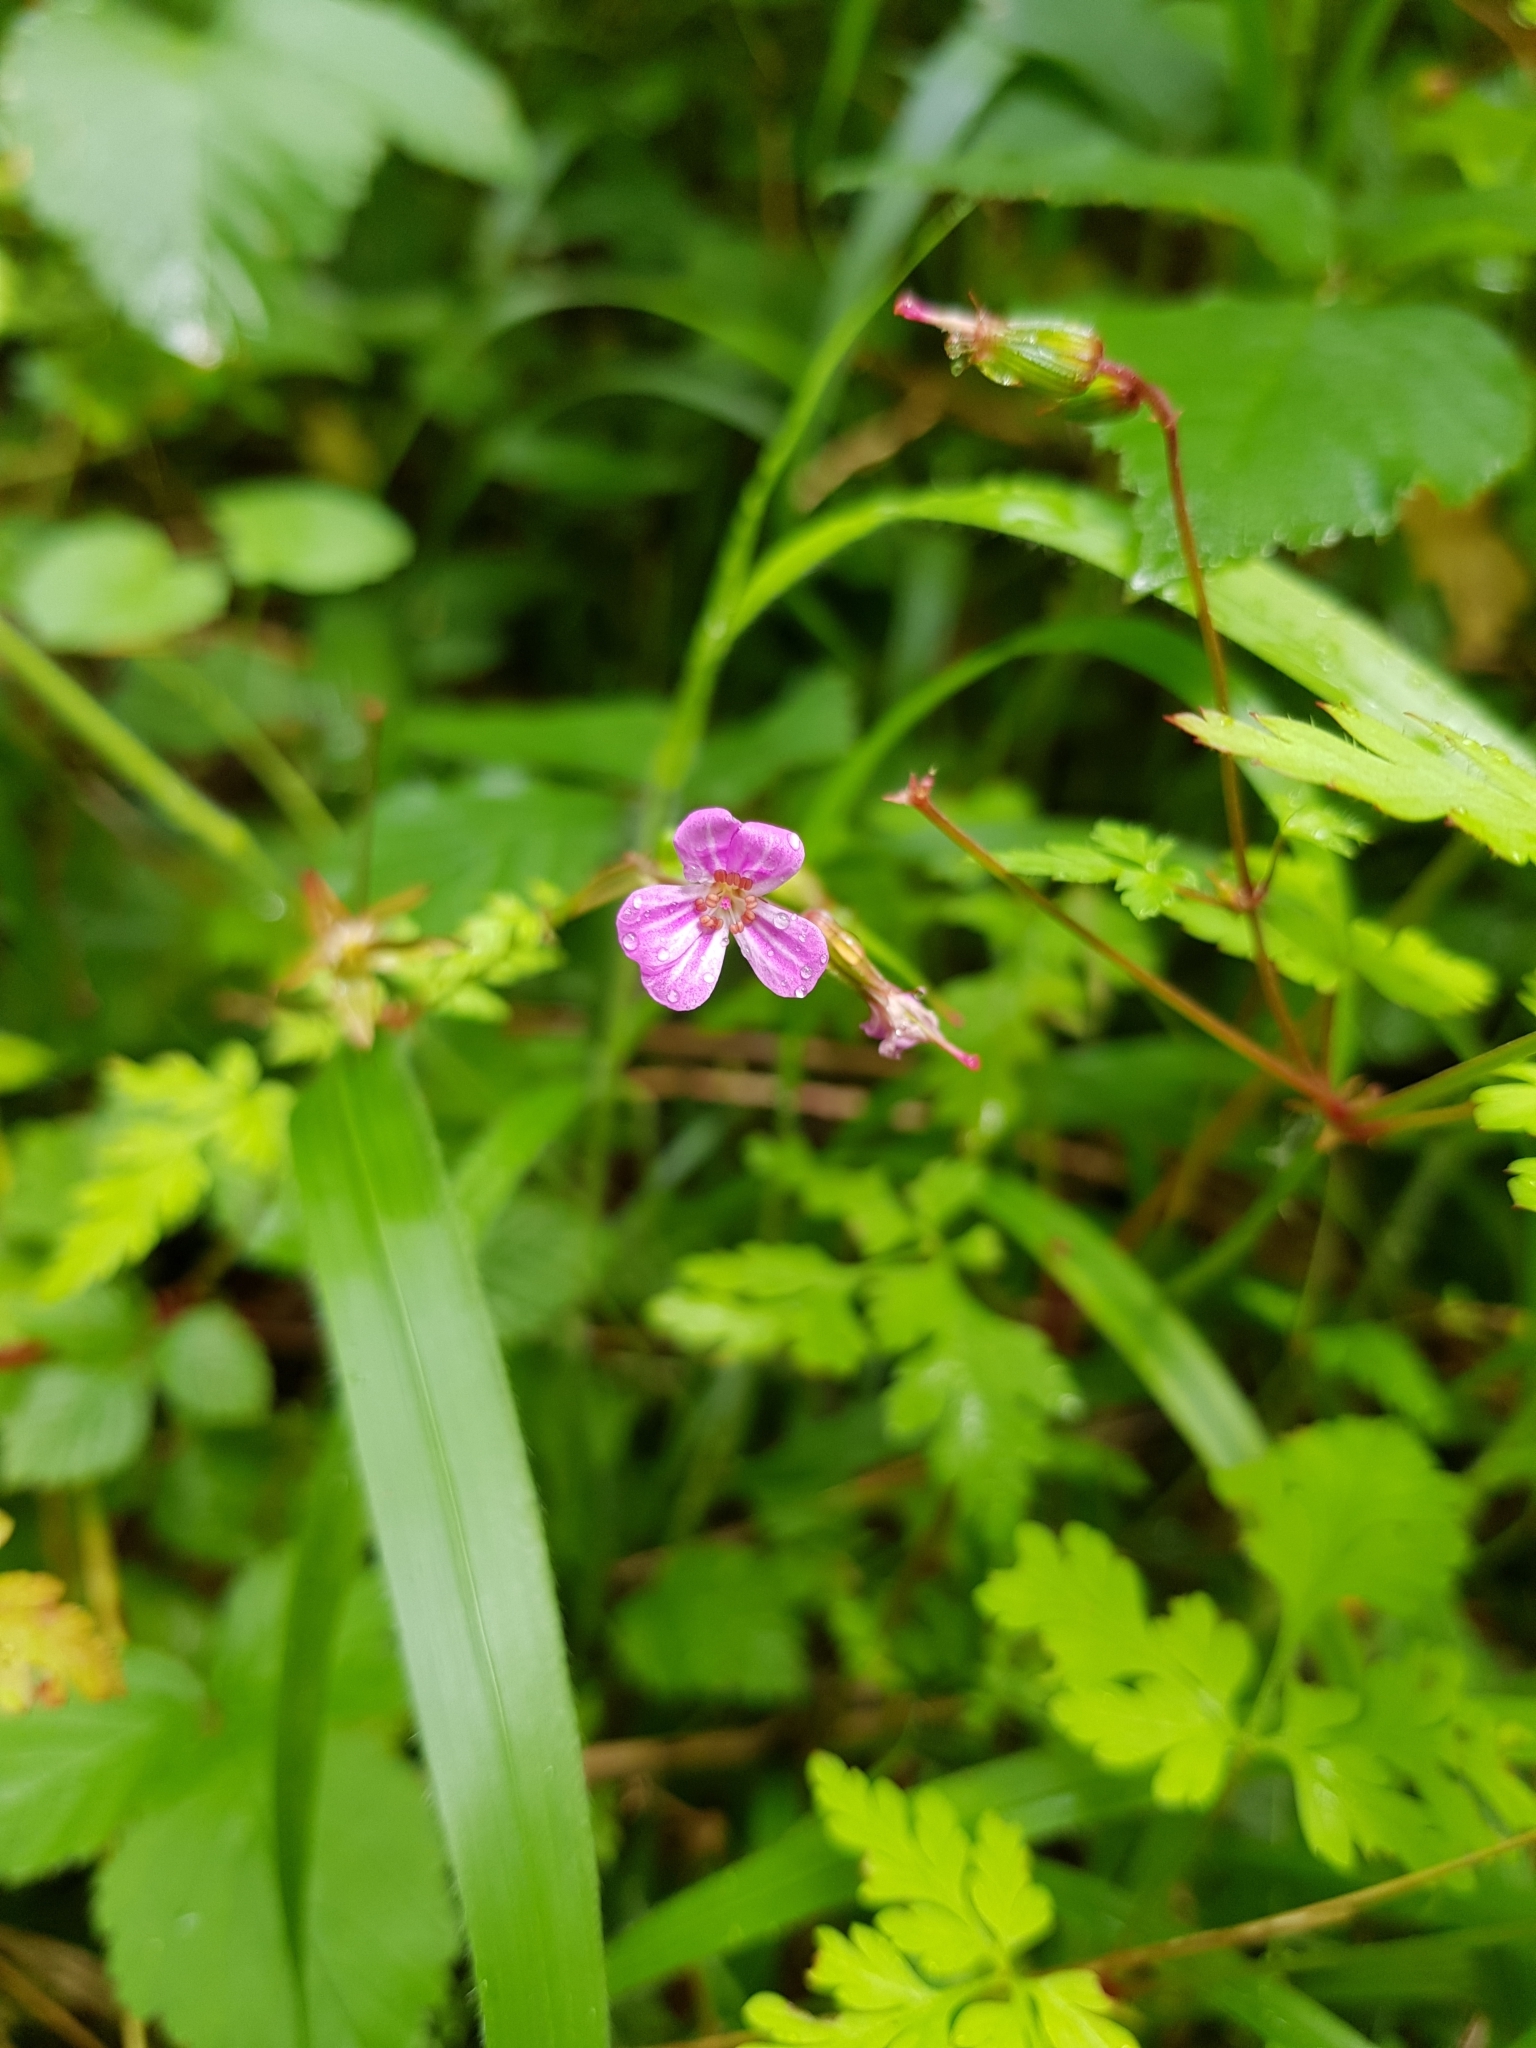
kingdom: Plantae
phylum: Tracheophyta
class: Magnoliopsida
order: Geraniales
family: Geraniaceae
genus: Geranium
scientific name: Geranium robertianum
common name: Herb-robert
